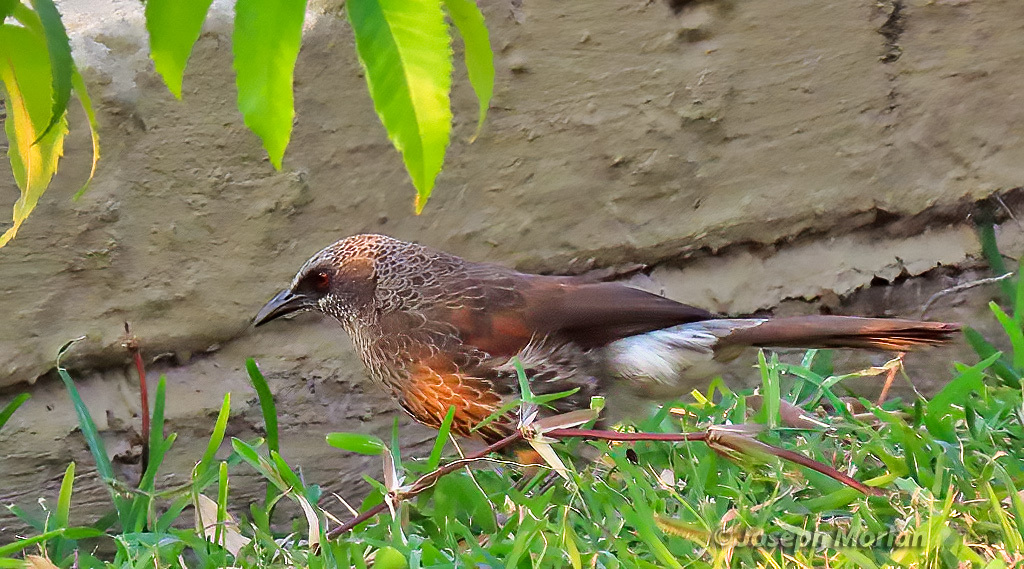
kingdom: Animalia
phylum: Chordata
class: Aves
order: Passeriformes
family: Leiothrichidae
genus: Turdoides
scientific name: Turdoides hartlaubii
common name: Hartlaub's babbler
